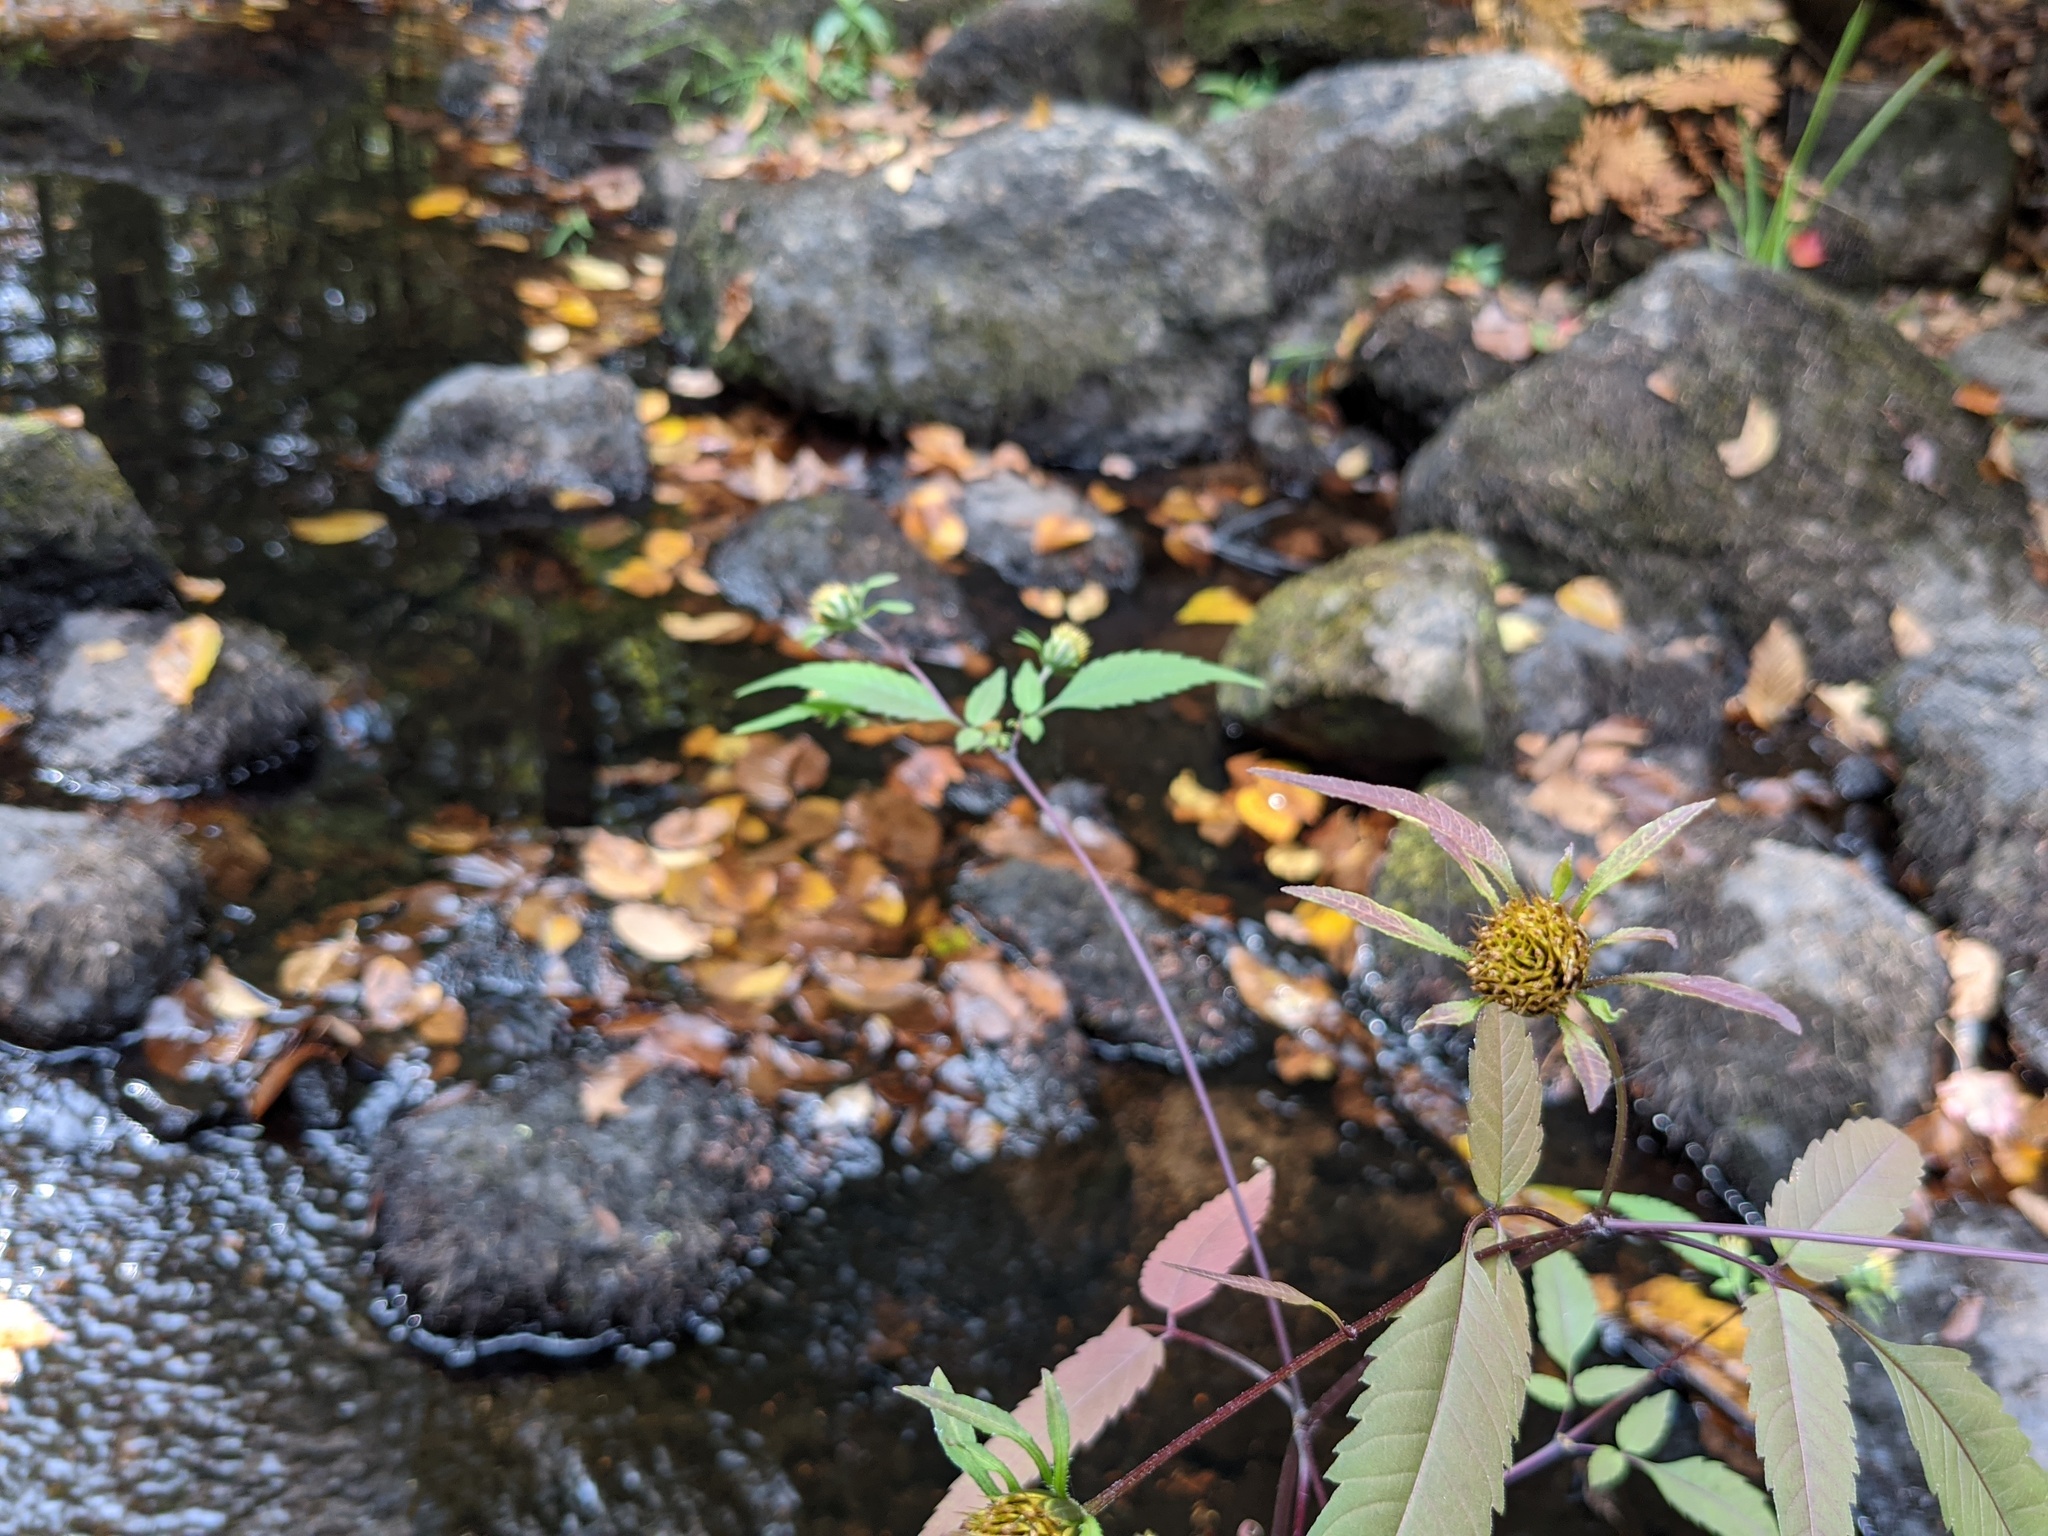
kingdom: Plantae
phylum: Tracheophyta
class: Magnoliopsida
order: Asterales
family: Asteraceae
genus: Bidens
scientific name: Bidens frondosa
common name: Beggarticks
